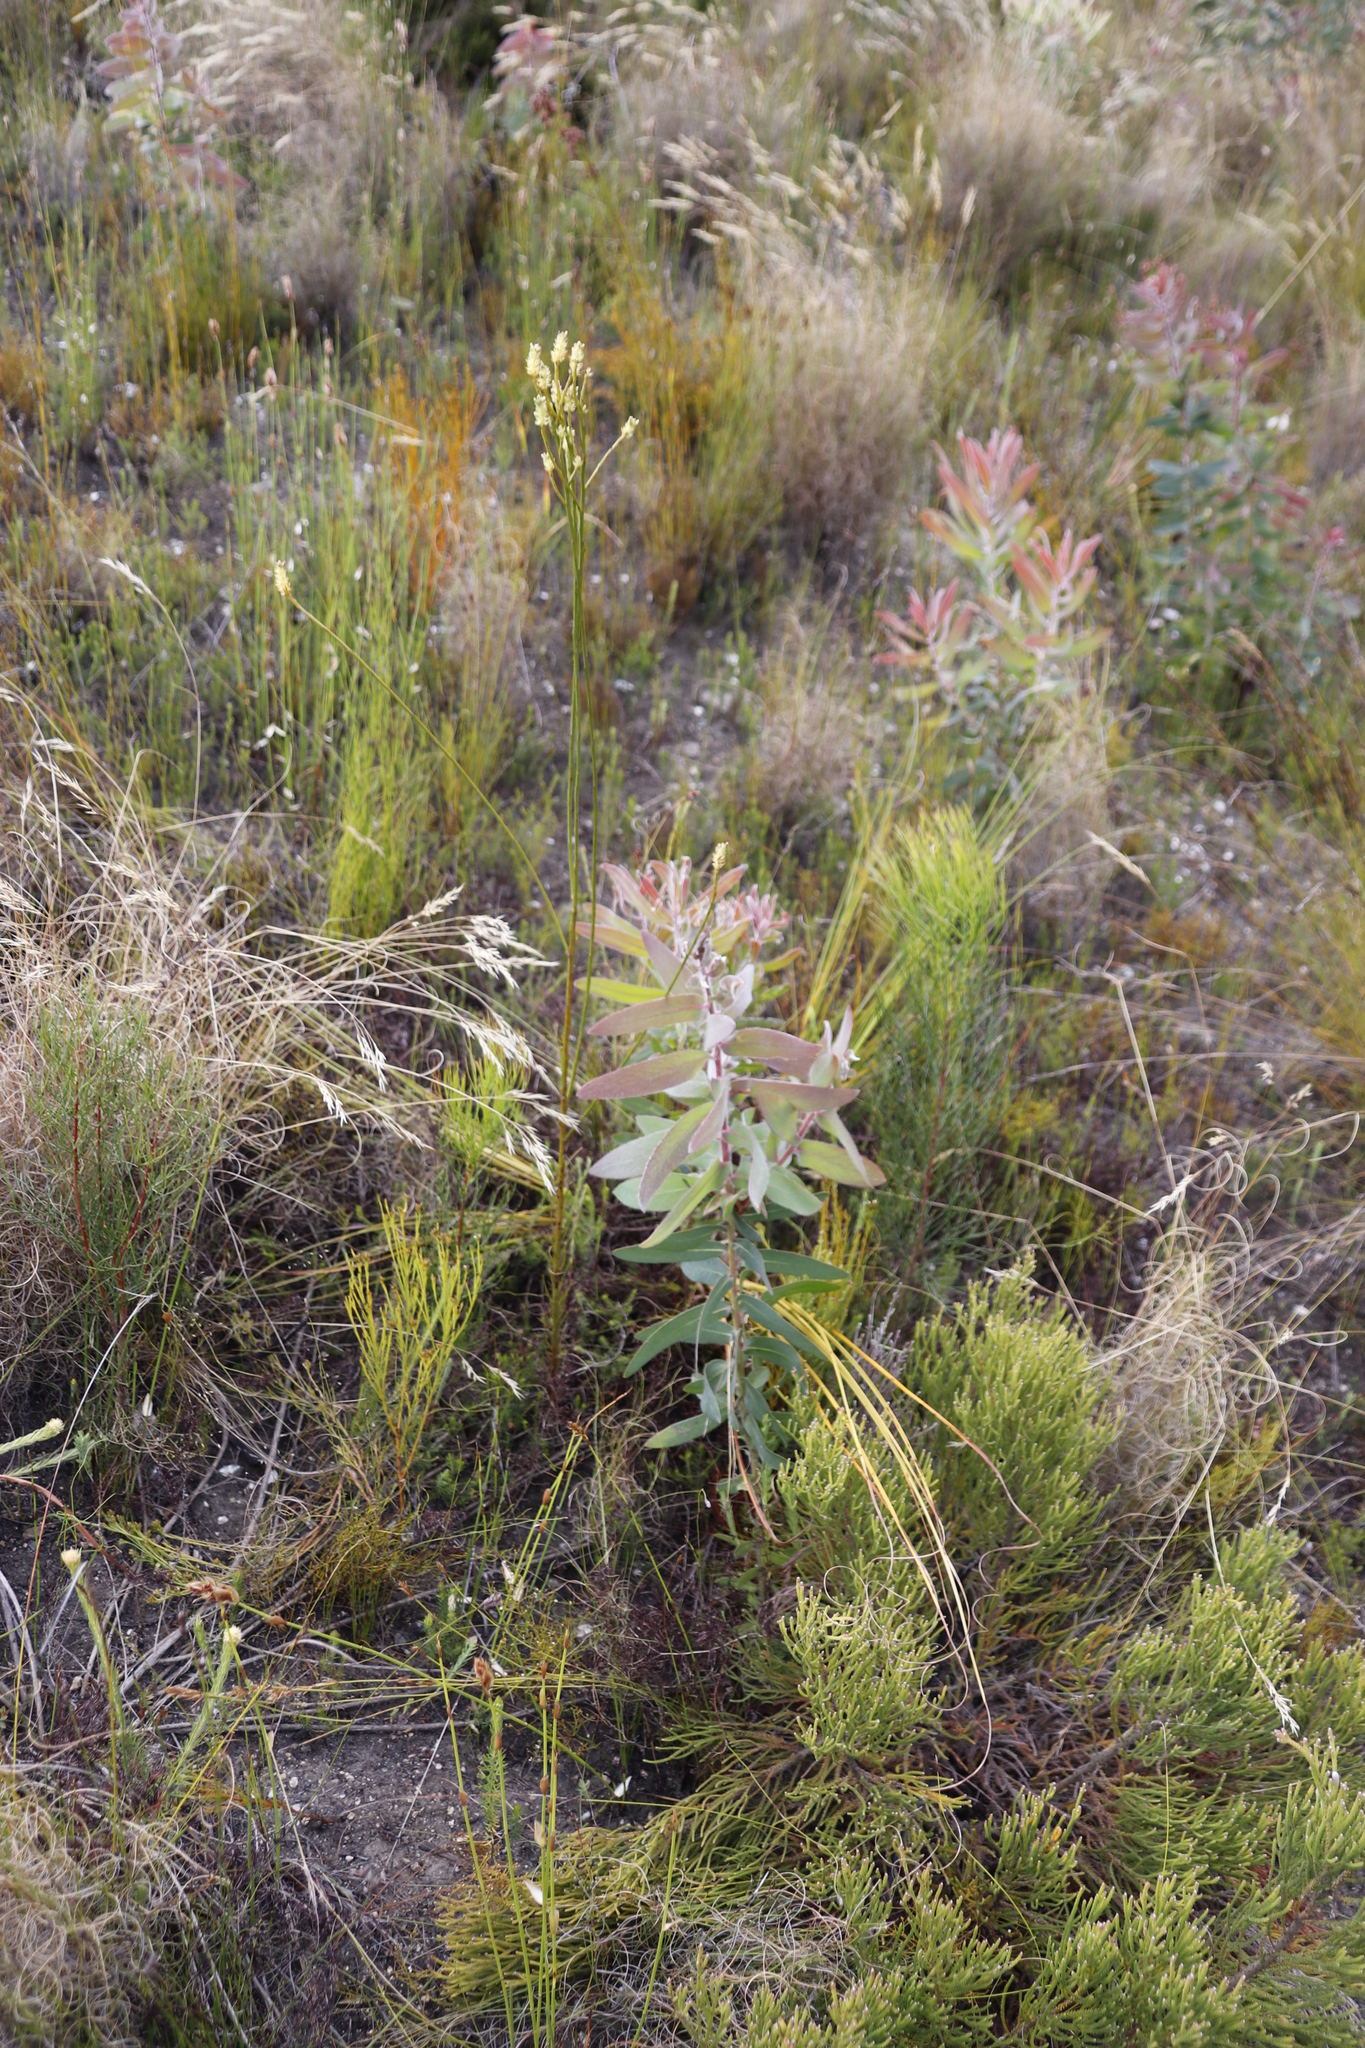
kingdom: Plantae
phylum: Tracheophyta
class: Magnoliopsida
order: Santalales
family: Thesiaceae
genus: Thesium
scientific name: Thesium subnudum
